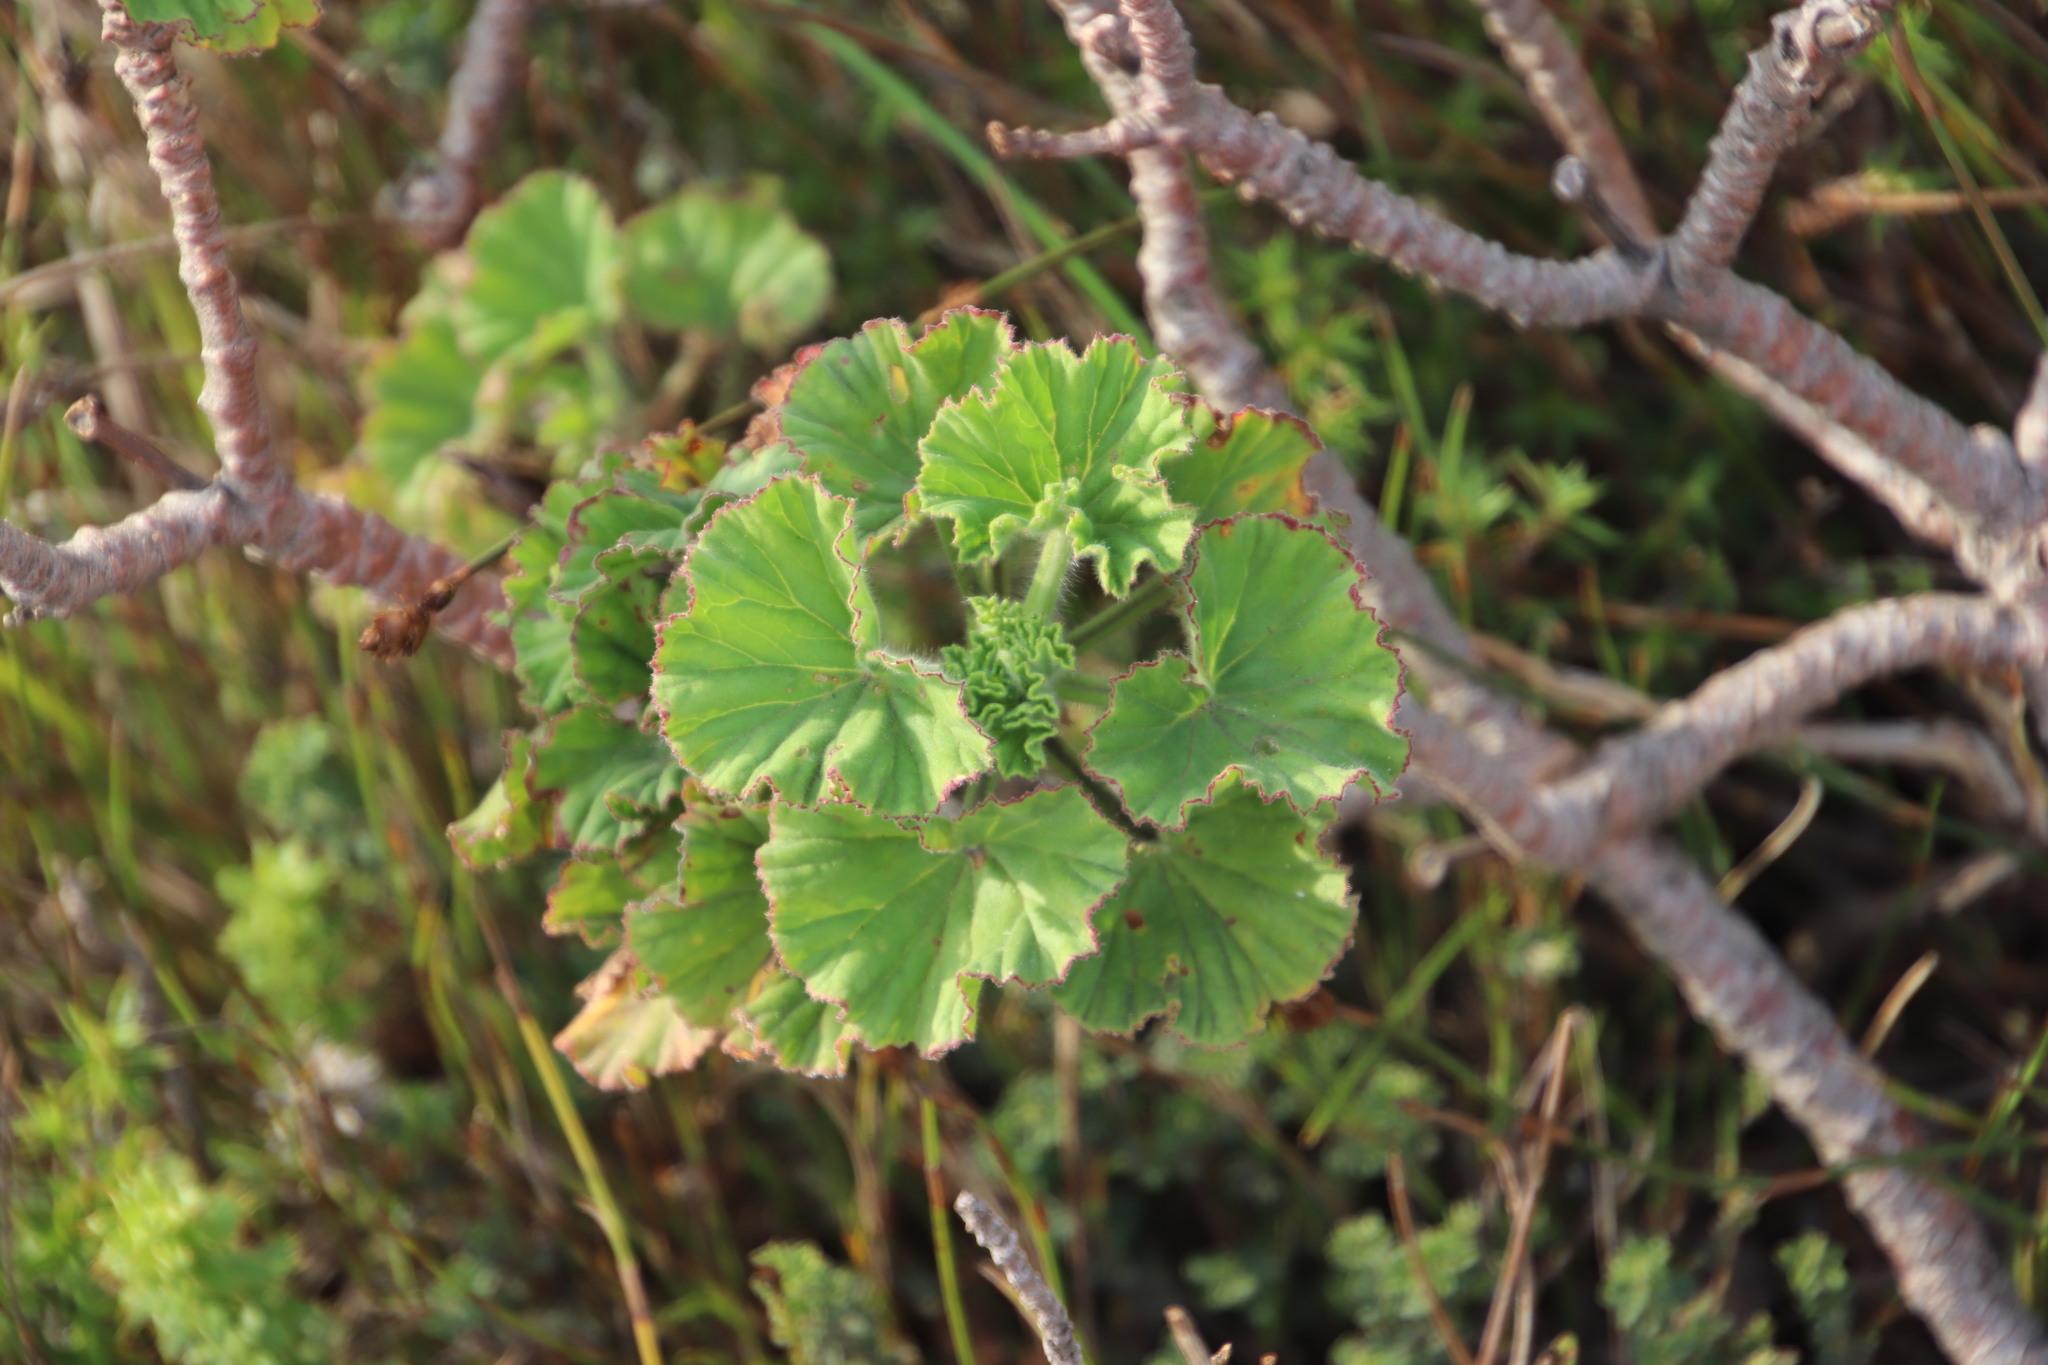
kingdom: Plantae
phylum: Tracheophyta
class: Magnoliopsida
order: Geraniales
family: Geraniaceae
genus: Pelargonium
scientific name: Pelargonium cucullatum
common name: Tree pelargonium
